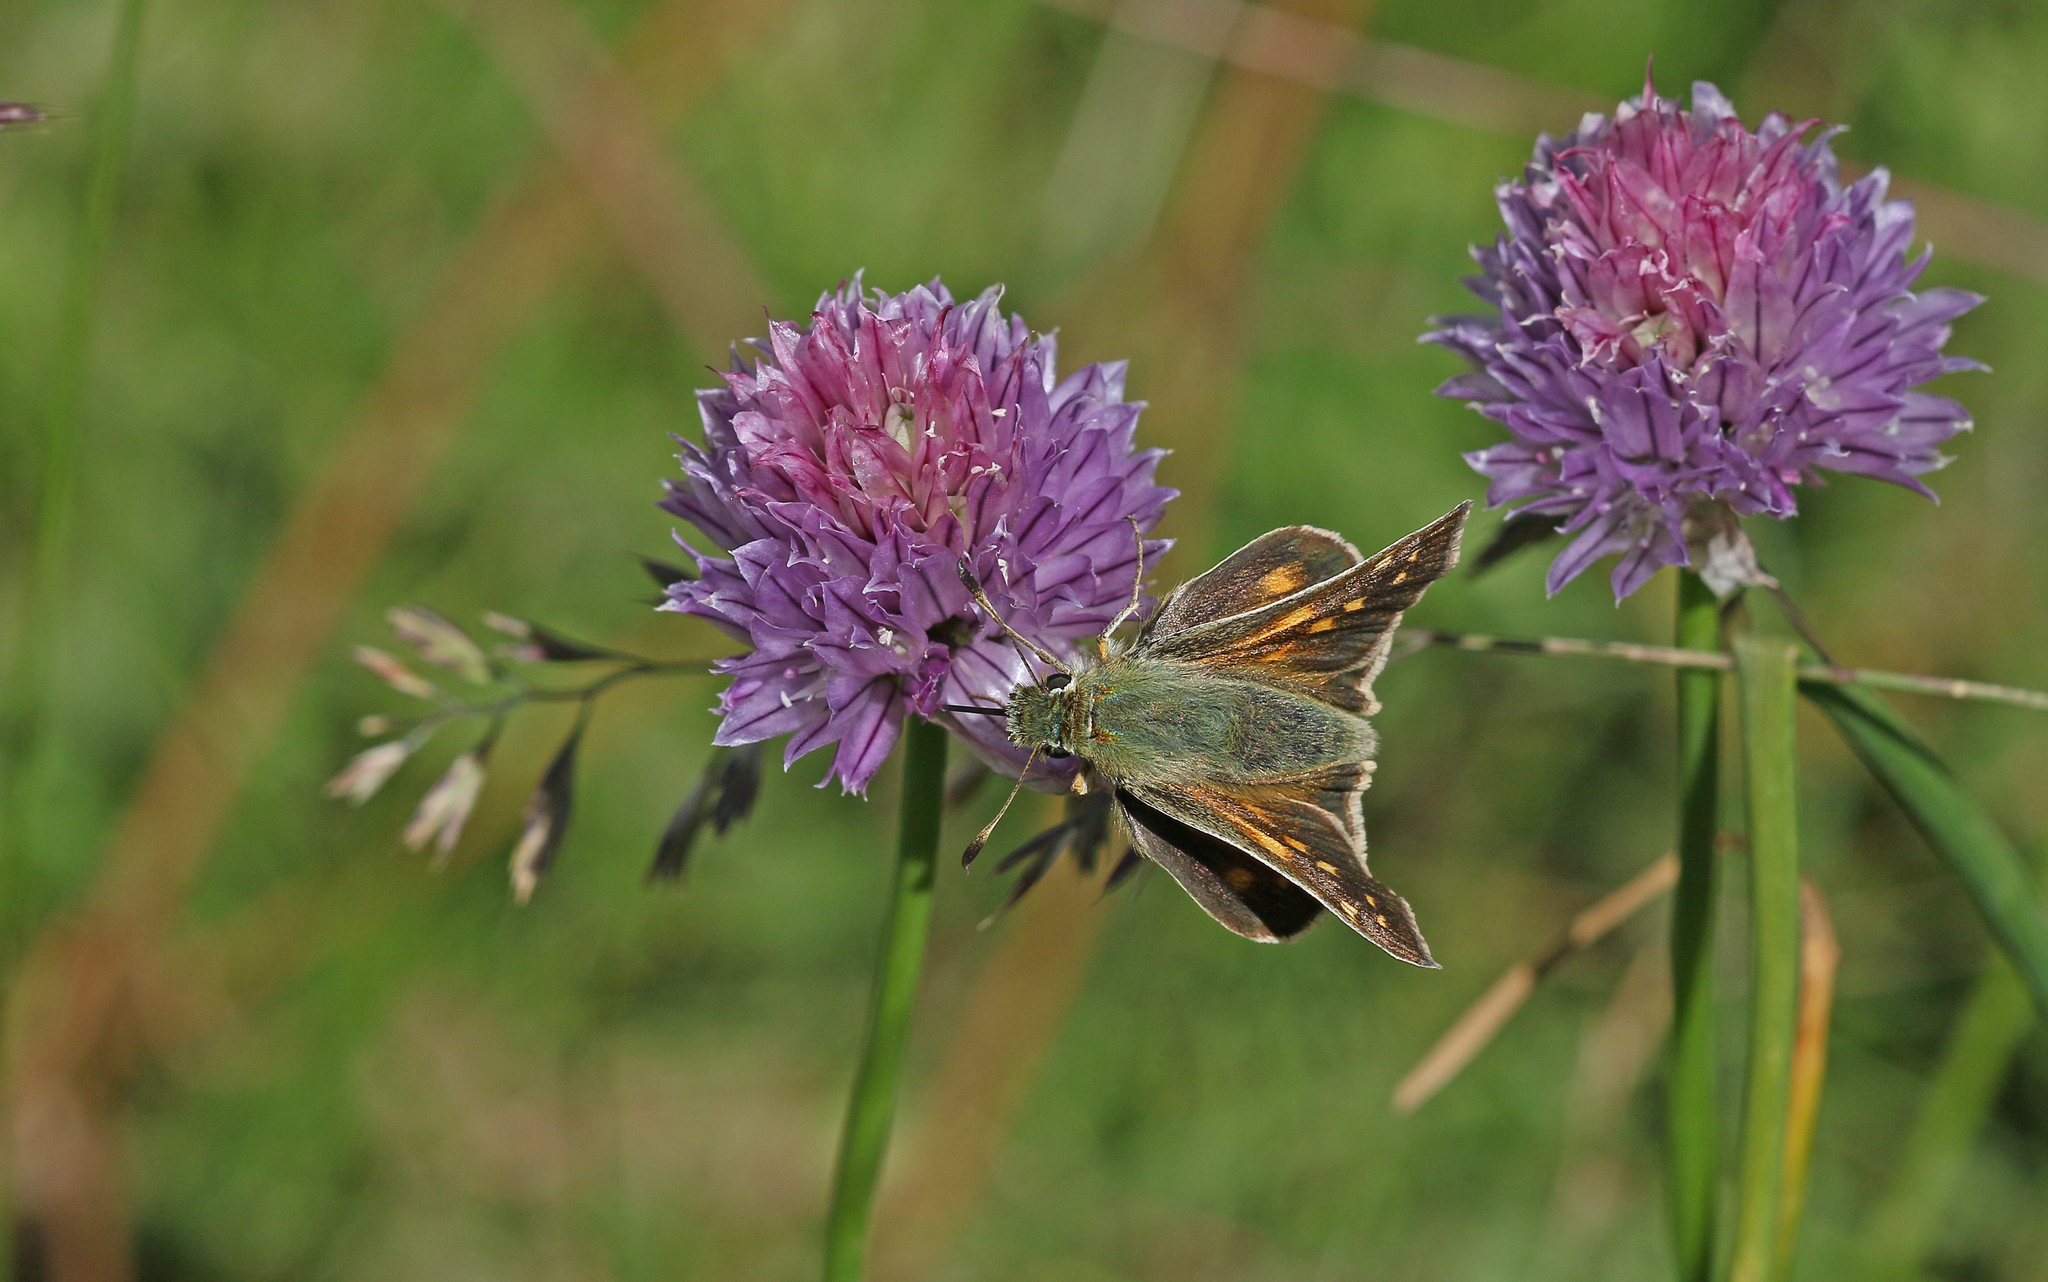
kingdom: Animalia
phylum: Arthropoda
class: Insecta
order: Lepidoptera
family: Hesperiidae
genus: Hesperia
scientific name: Hesperia comma
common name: Common branded skipper
